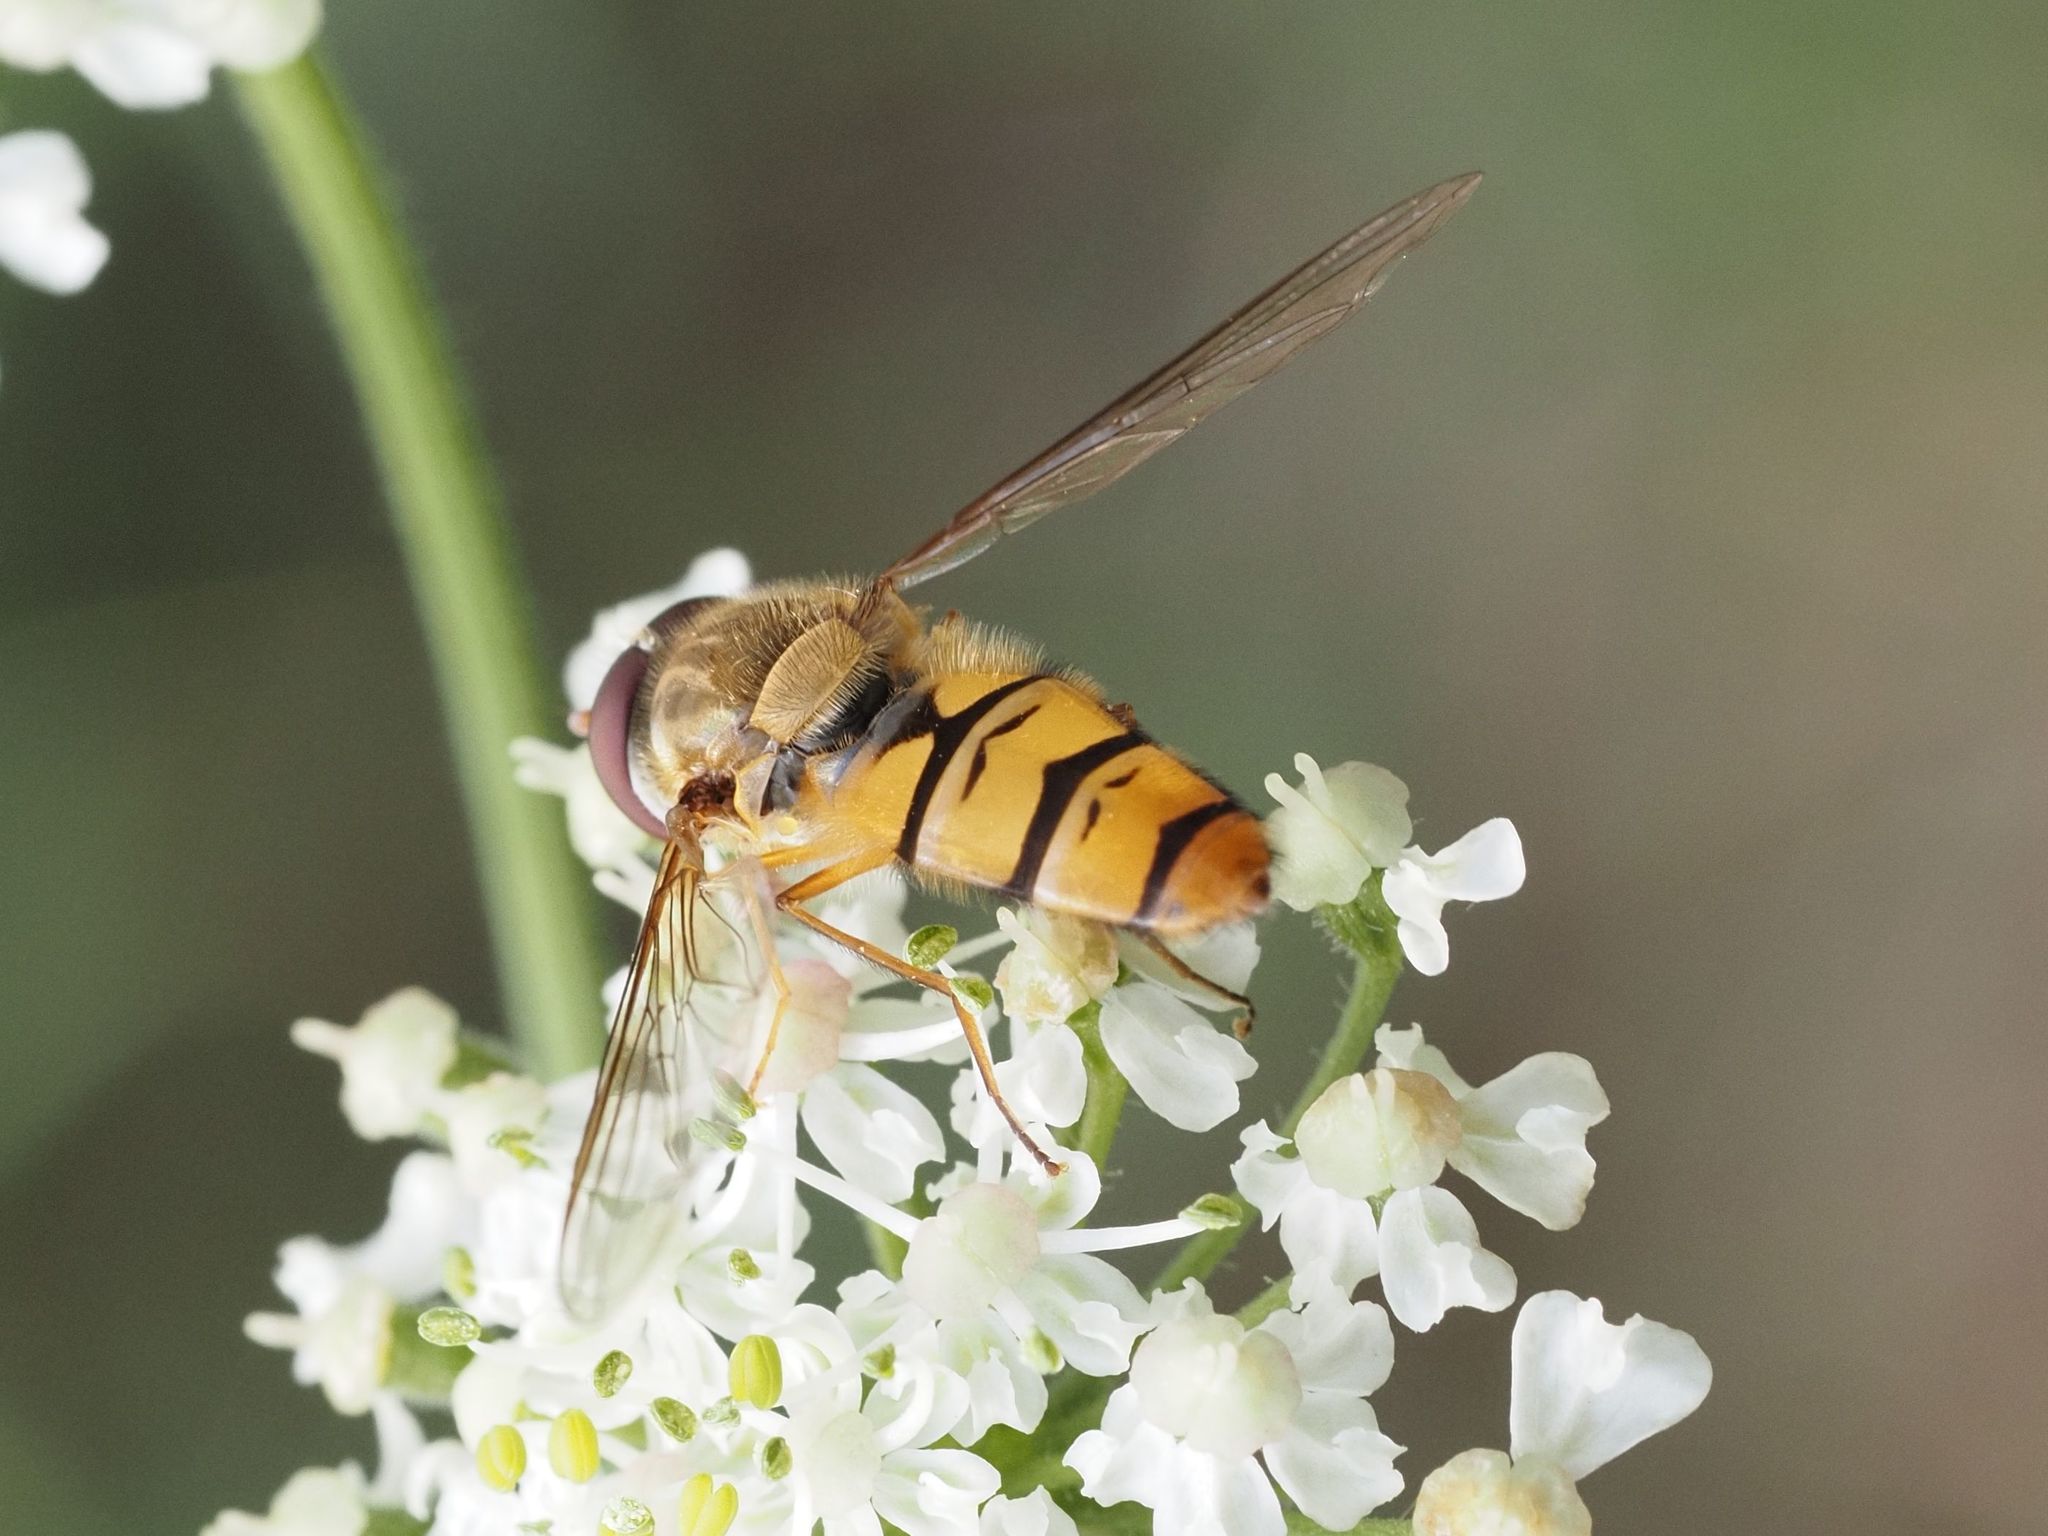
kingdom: Animalia
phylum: Arthropoda
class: Insecta
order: Diptera
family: Syrphidae
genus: Episyrphus
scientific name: Episyrphus balteatus
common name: Marmalade hoverfly
